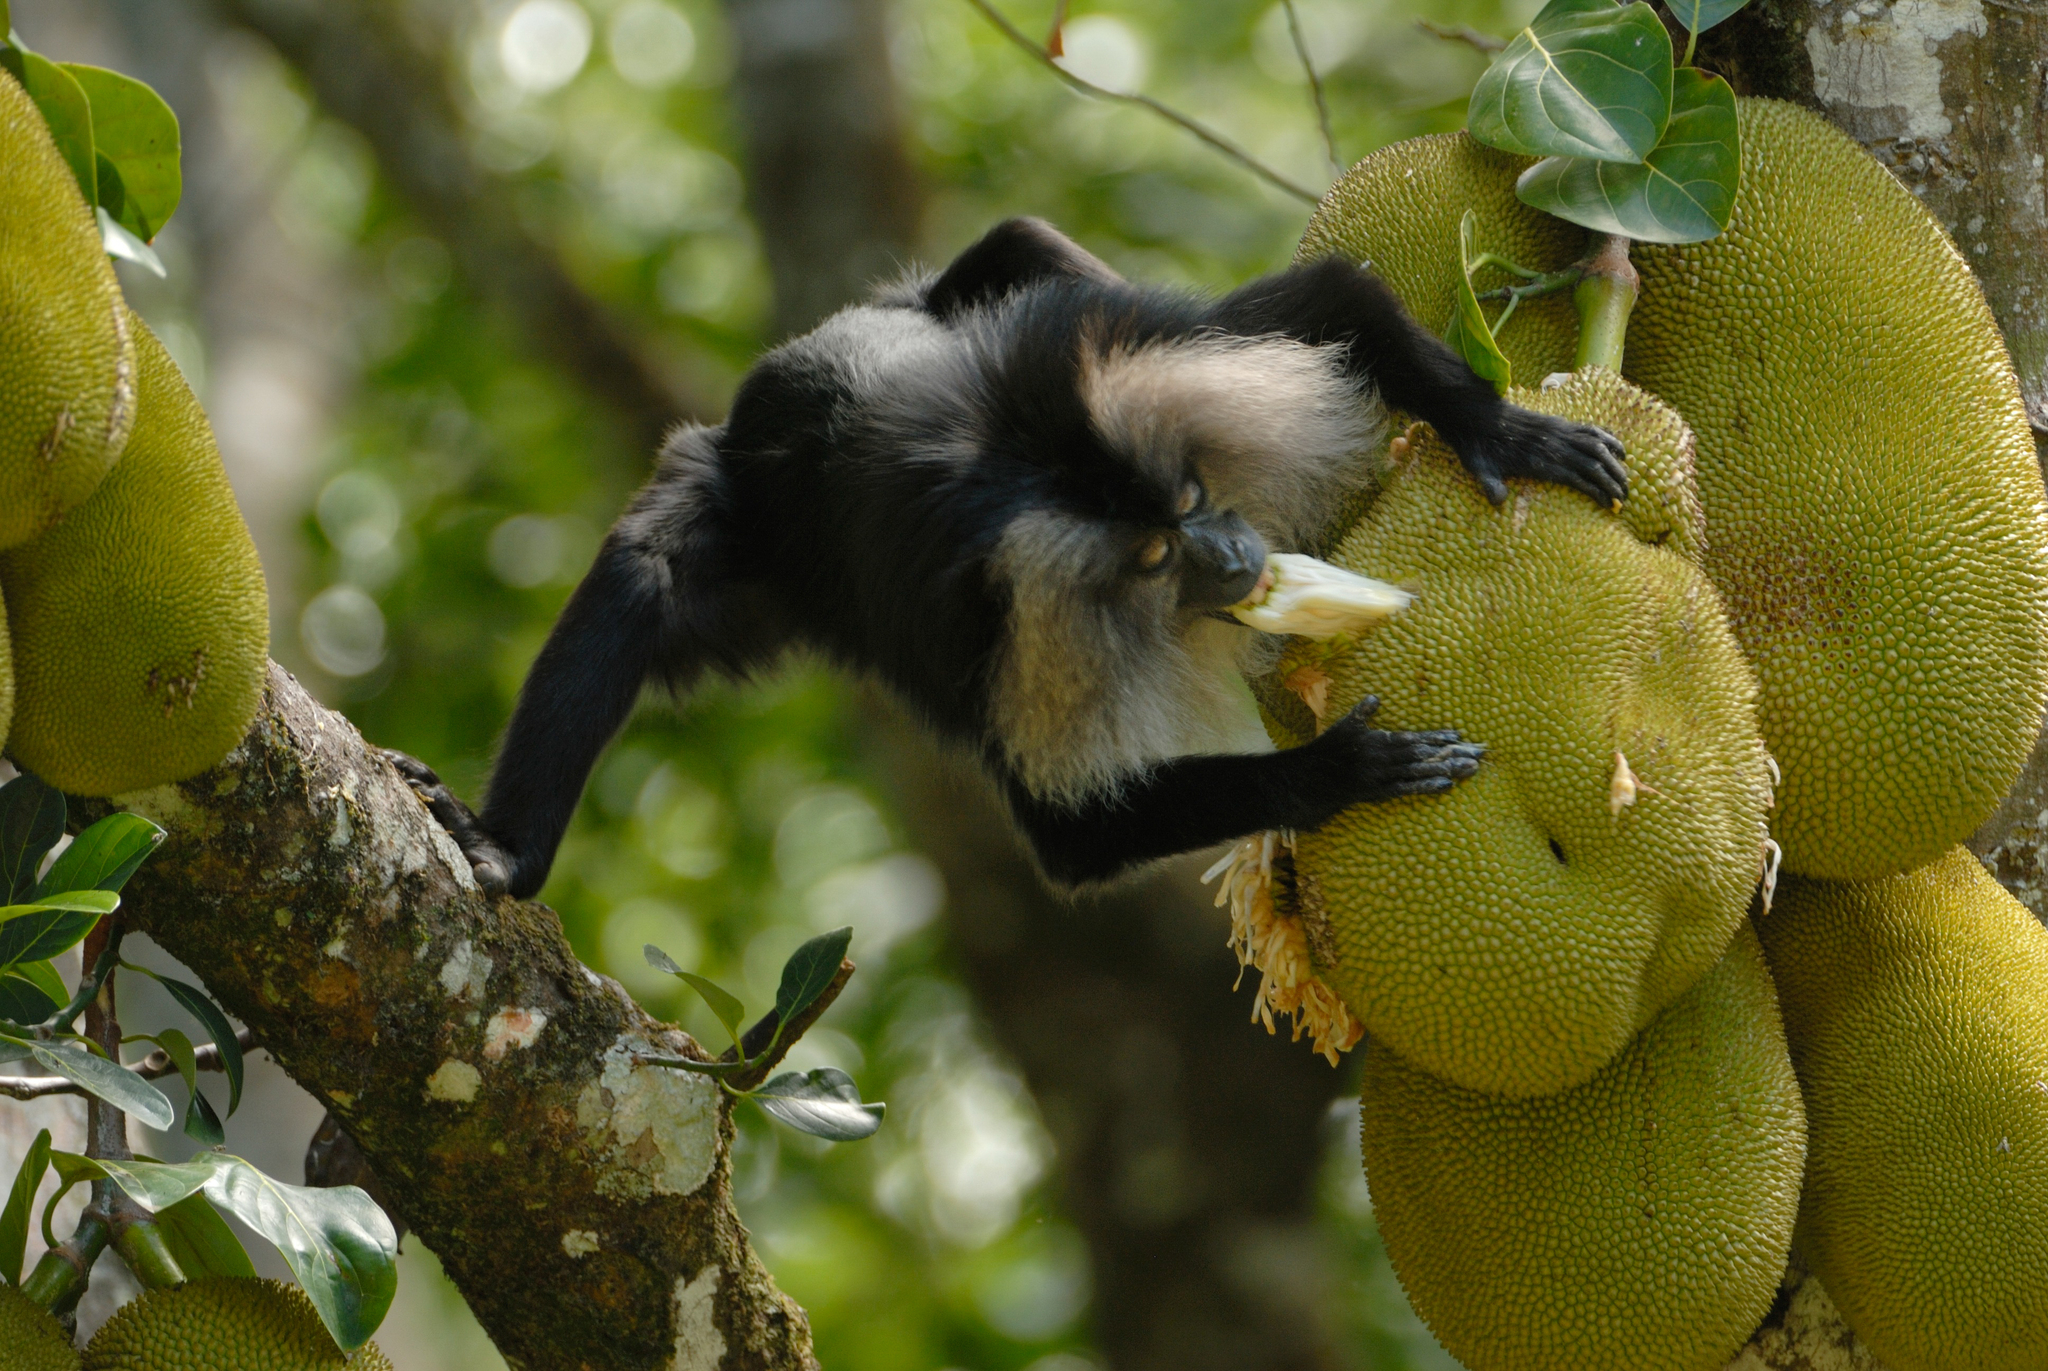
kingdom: Animalia
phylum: Chordata
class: Mammalia
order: Primates
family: Cercopithecidae
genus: Macaca
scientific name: Macaca silenus
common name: Lion-tailed macaque
